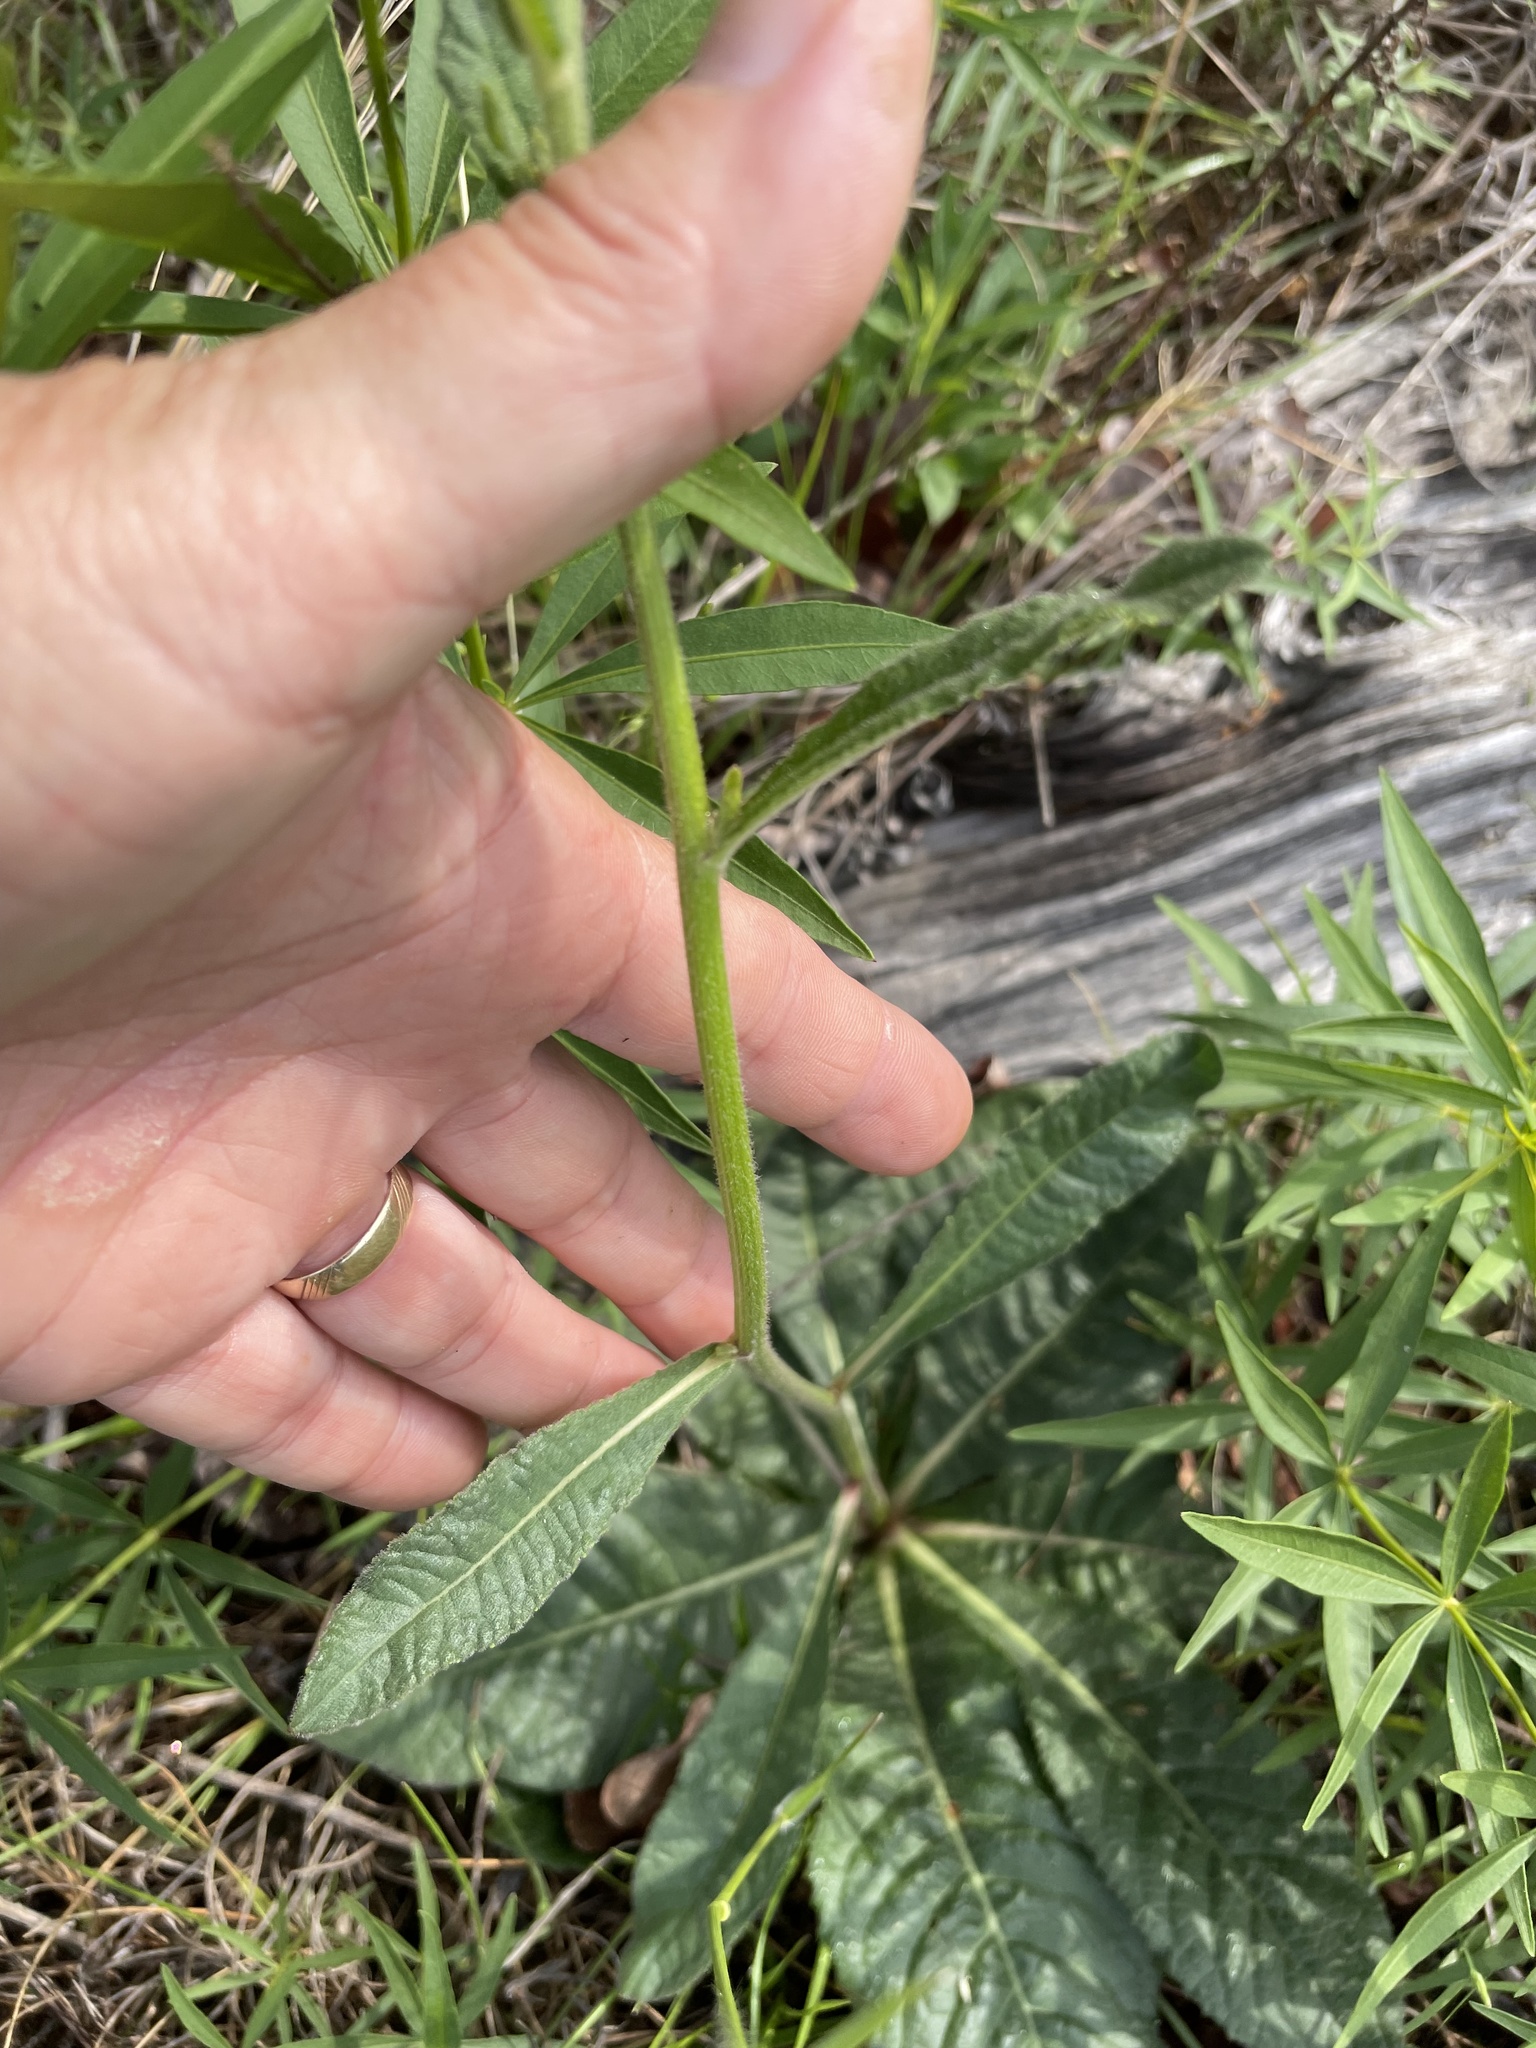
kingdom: Plantae
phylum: Tracheophyta
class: Magnoliopsida
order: Asterales
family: Asteraceae
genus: Vernonia
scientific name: Vernonia acaulis
